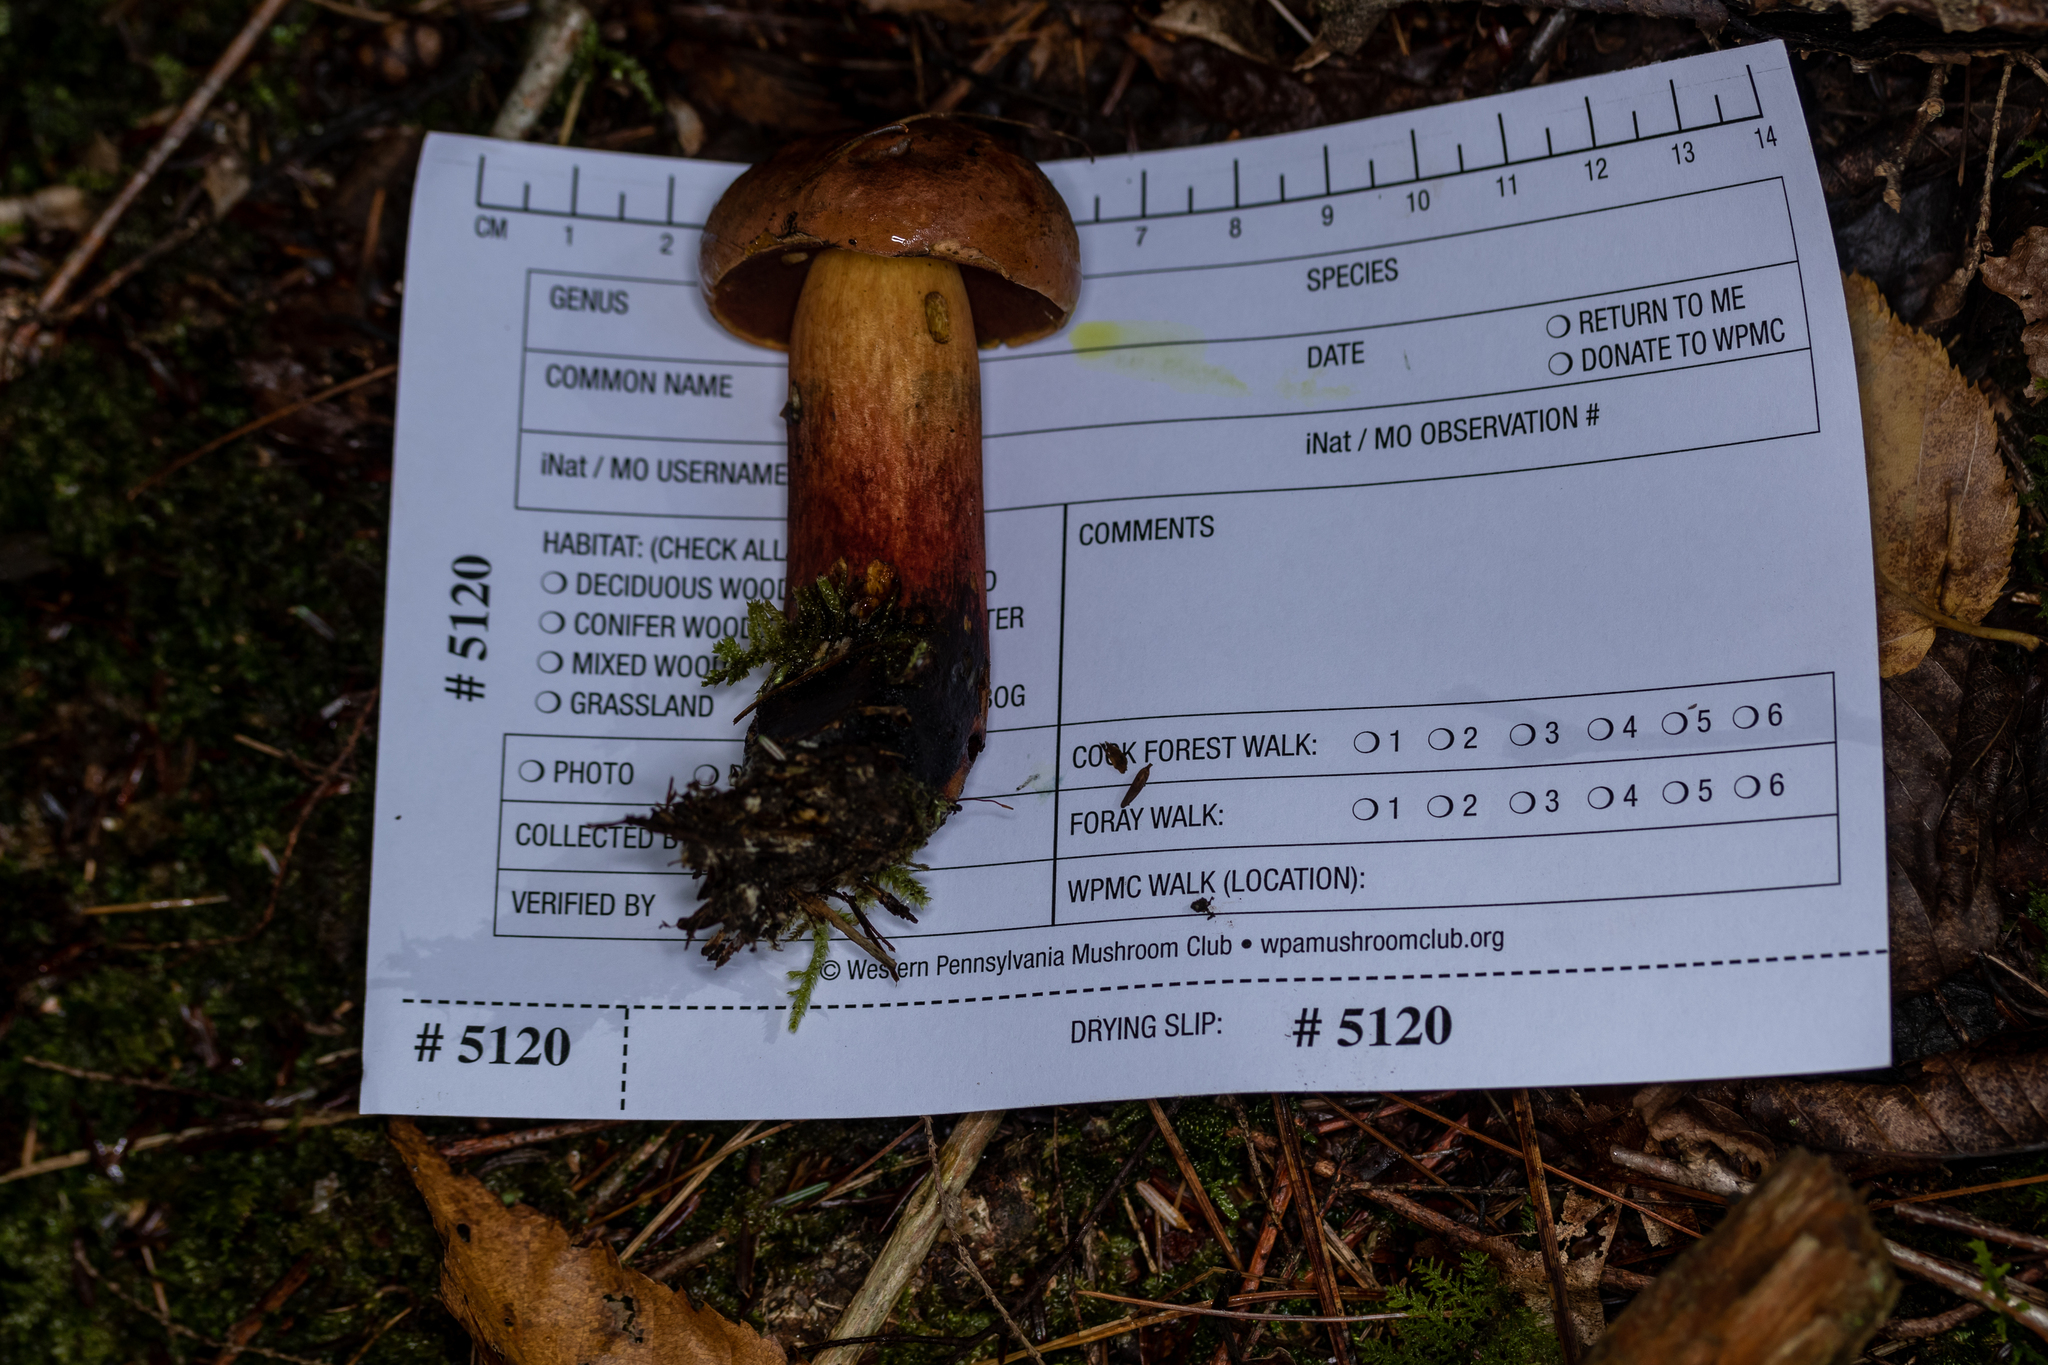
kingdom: Fungi
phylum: Basidiomycota
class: Agaricomycetes
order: Boletales
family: Boletaceae
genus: Boletus
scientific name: Boletus subvelutipes
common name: Red-mouth bolete
